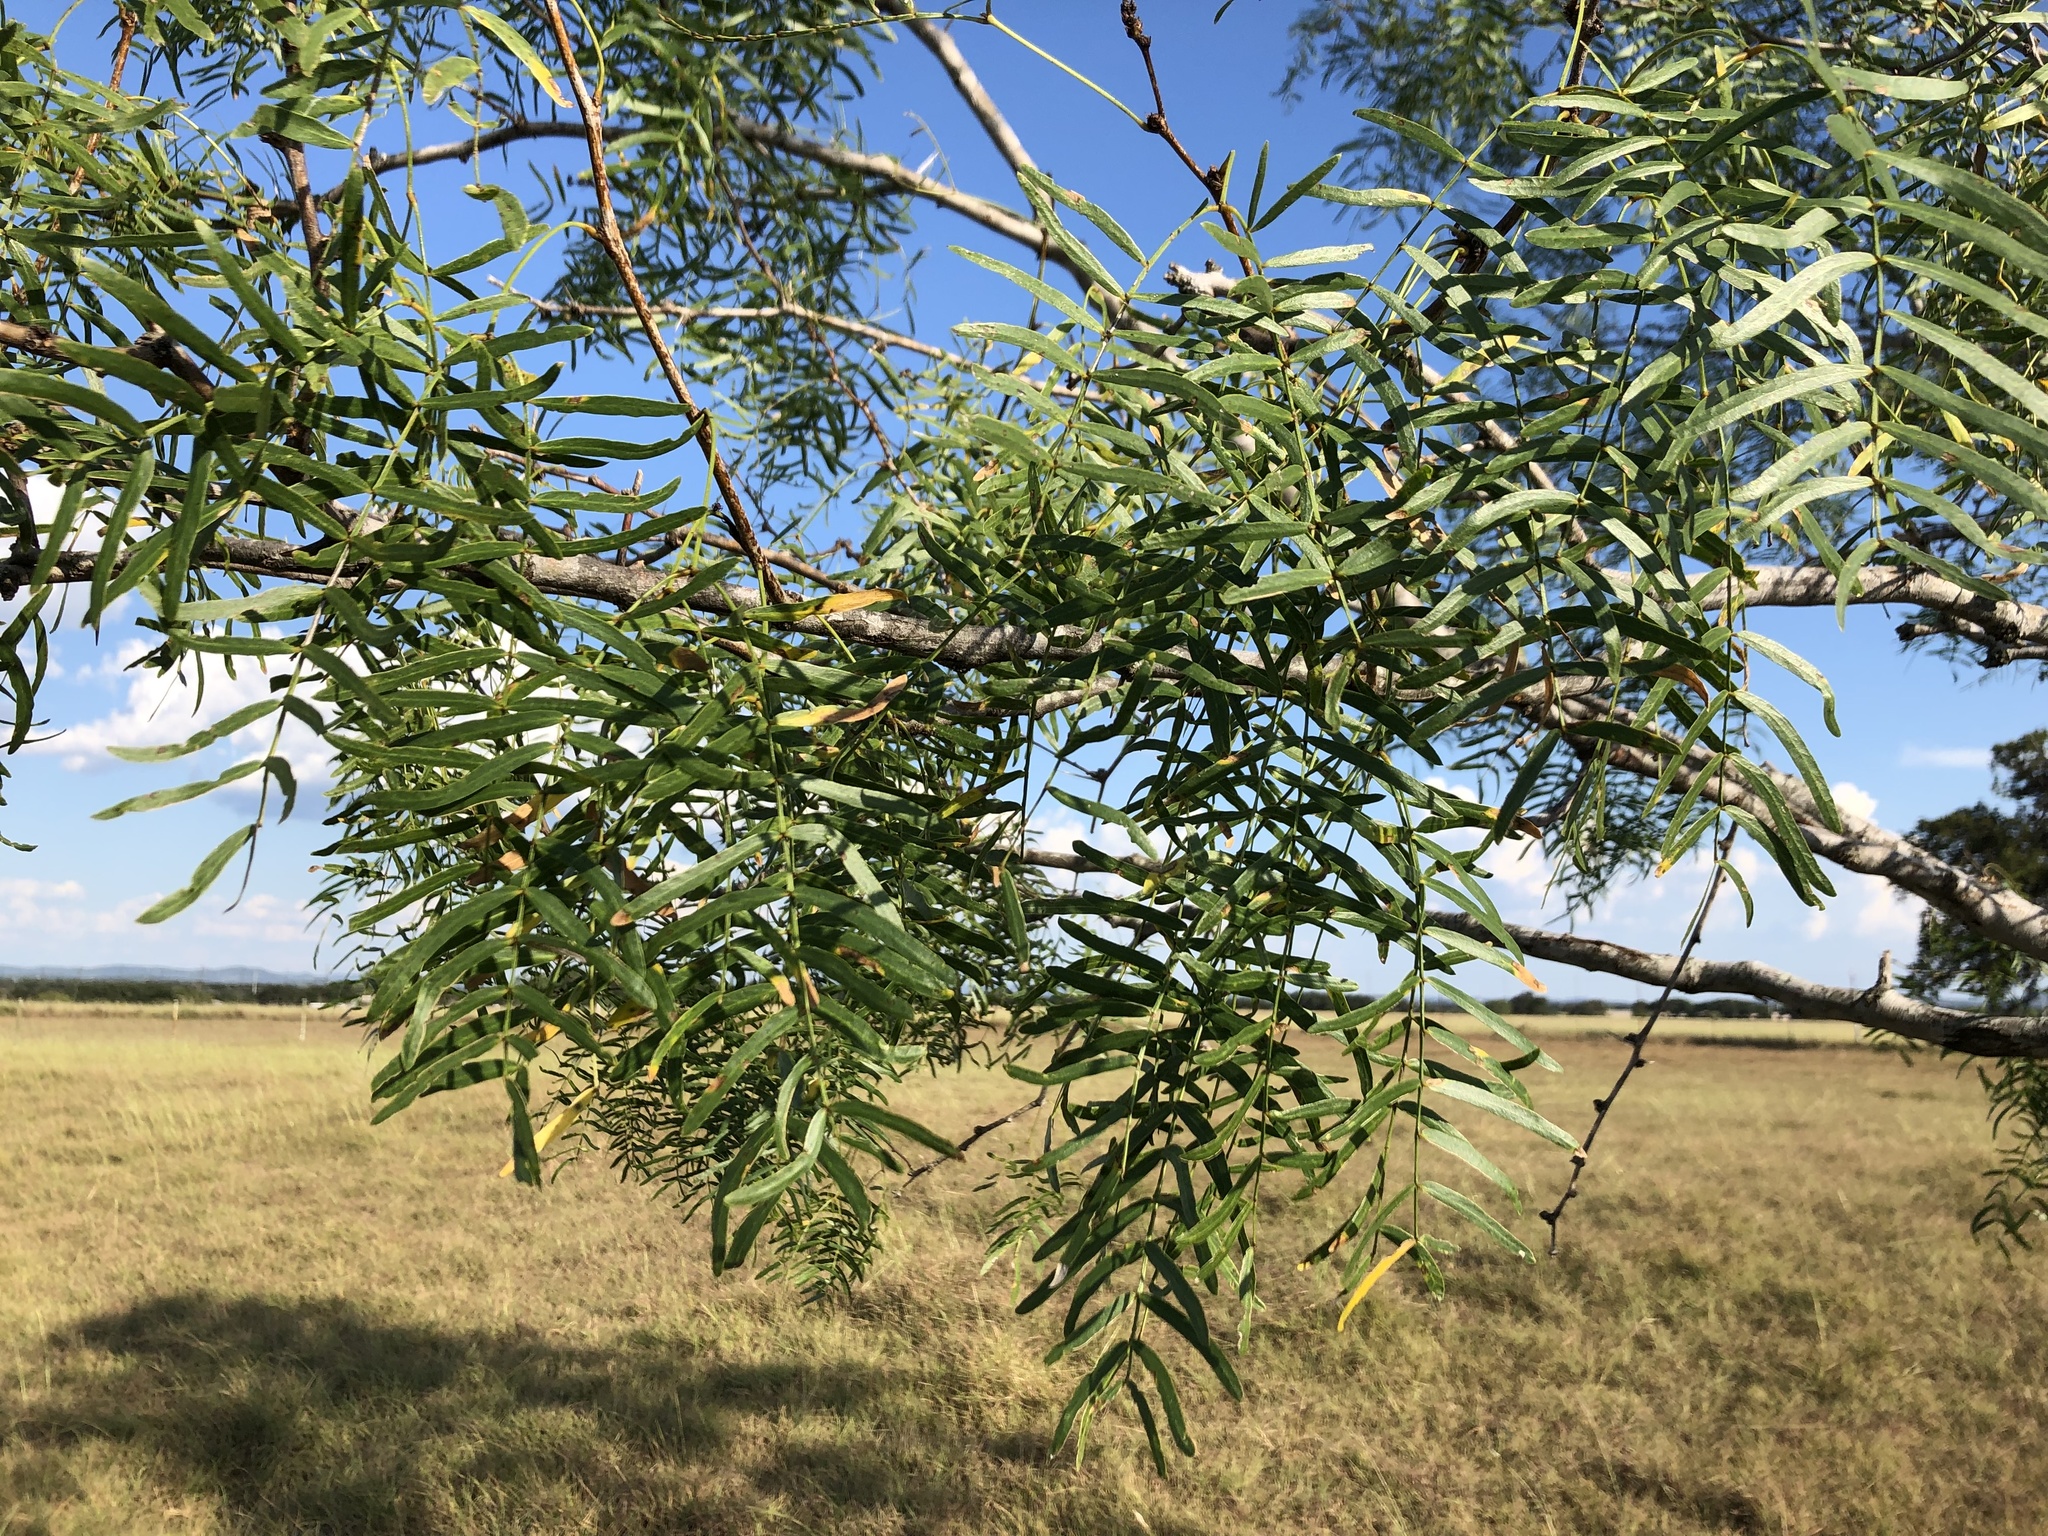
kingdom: Plantae
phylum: Tracheophyta
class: Magnoliopsida
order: Fabales
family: Fabaceae
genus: Prosopis
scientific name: Prosopis glandulosa
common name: Honey mesquite
